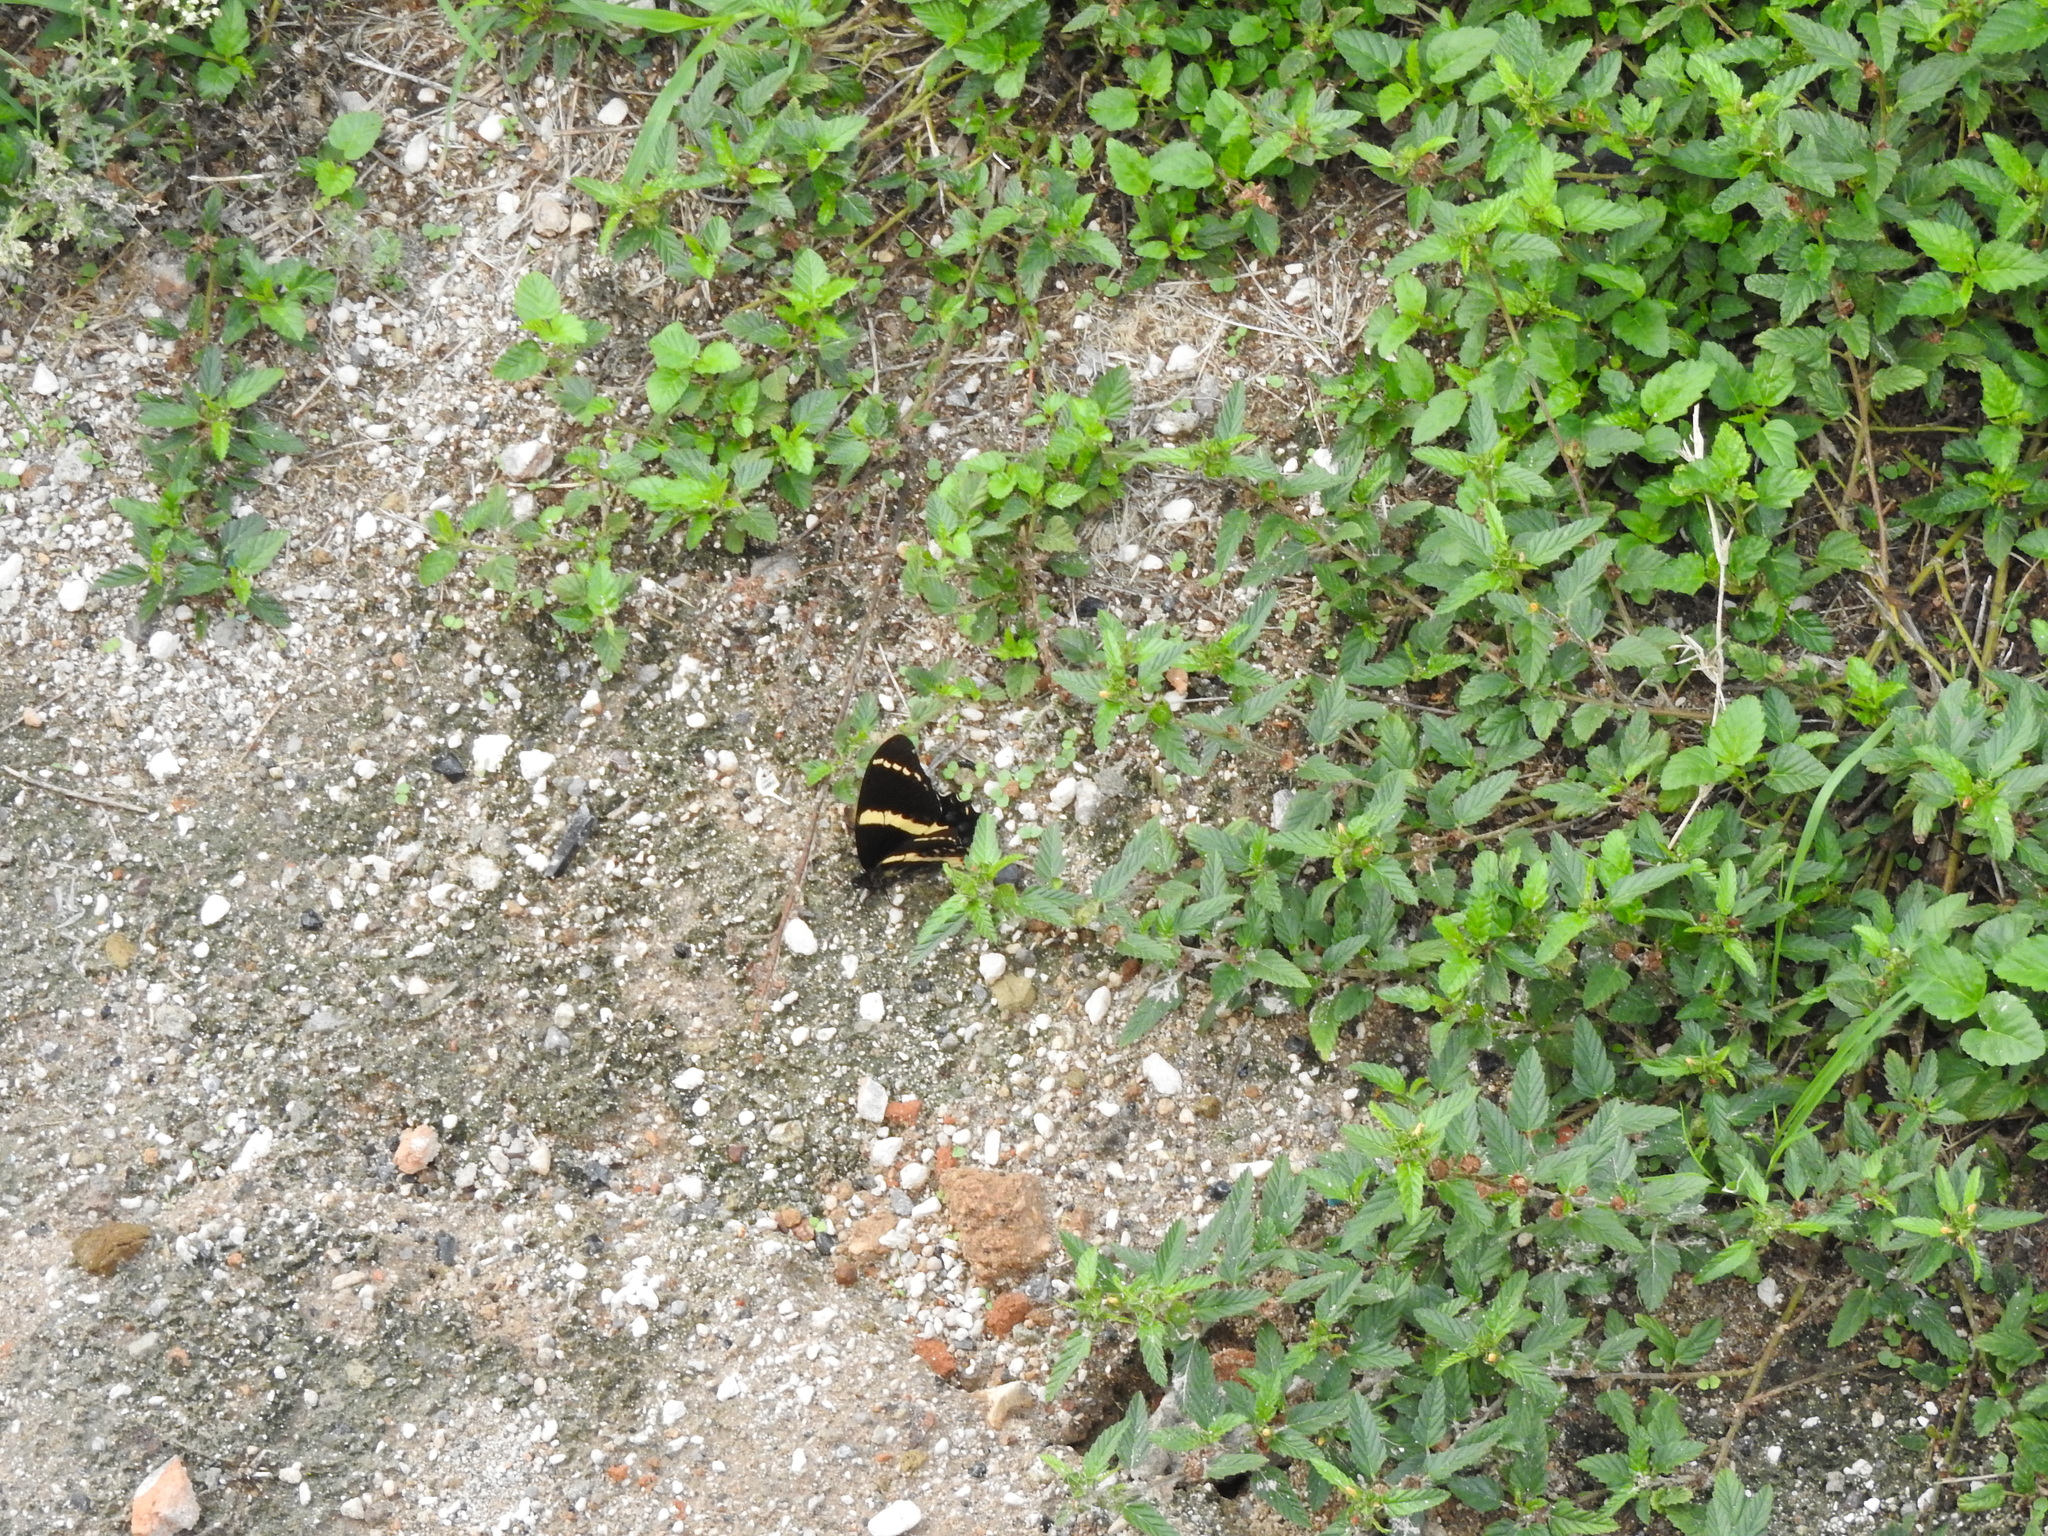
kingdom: Animalia
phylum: Arthropoda
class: Insecta
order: Lepidoptera
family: Papilionidae
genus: Papilio
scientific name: Papilio garamas
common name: Magnificent swallowtail
